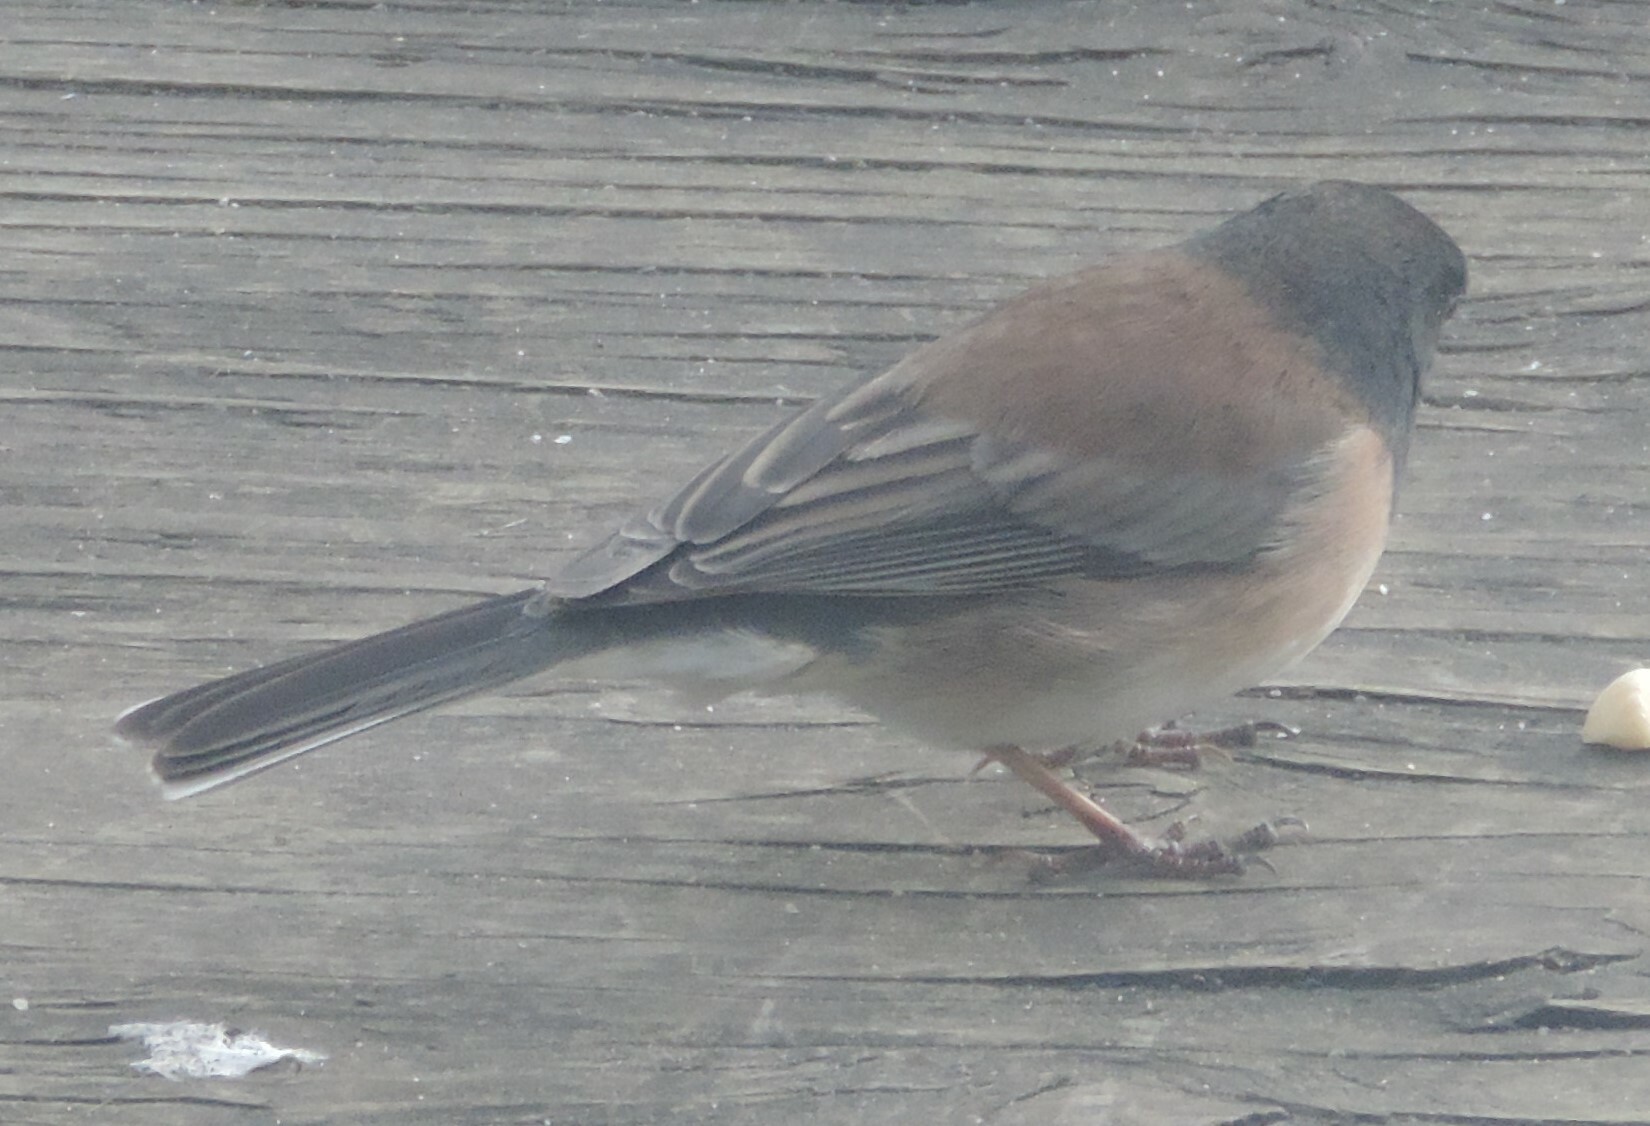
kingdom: Animalia
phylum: Chordata
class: Aves
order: Passeriformes
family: Passerellidae
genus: Junco
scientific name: Junco hyemalis
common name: Dark-eyed junco
